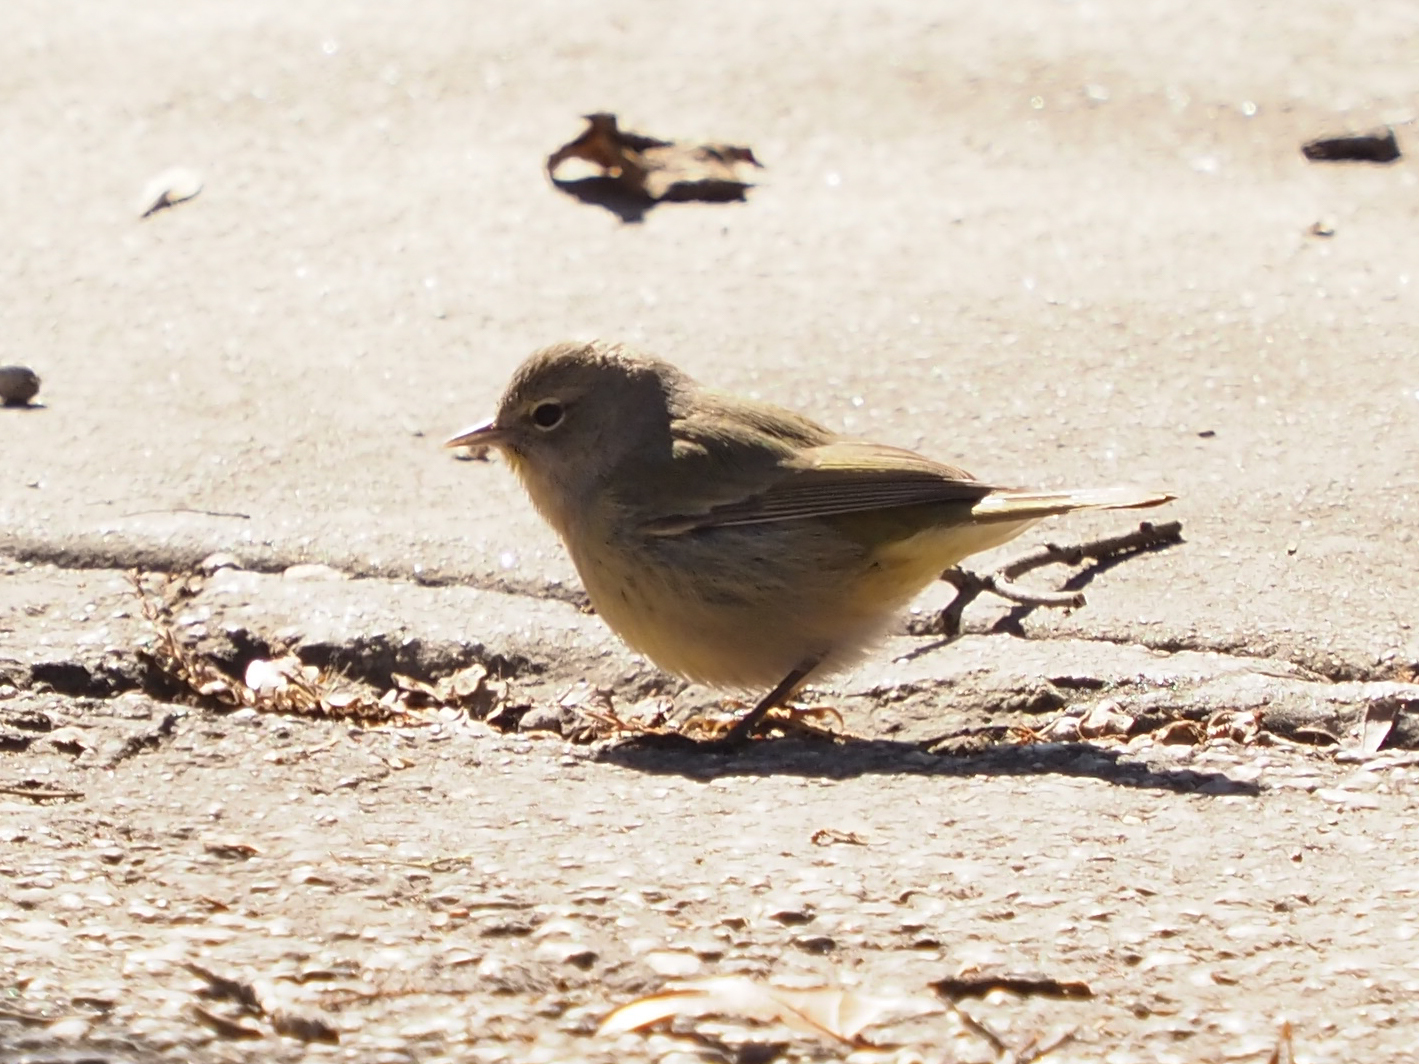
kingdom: Animalia
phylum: Chordata
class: Aves
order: Passeriformes
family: Parulidae
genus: Leiothlypis
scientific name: Leiothlypis celata
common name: Orange-crowned warbler
